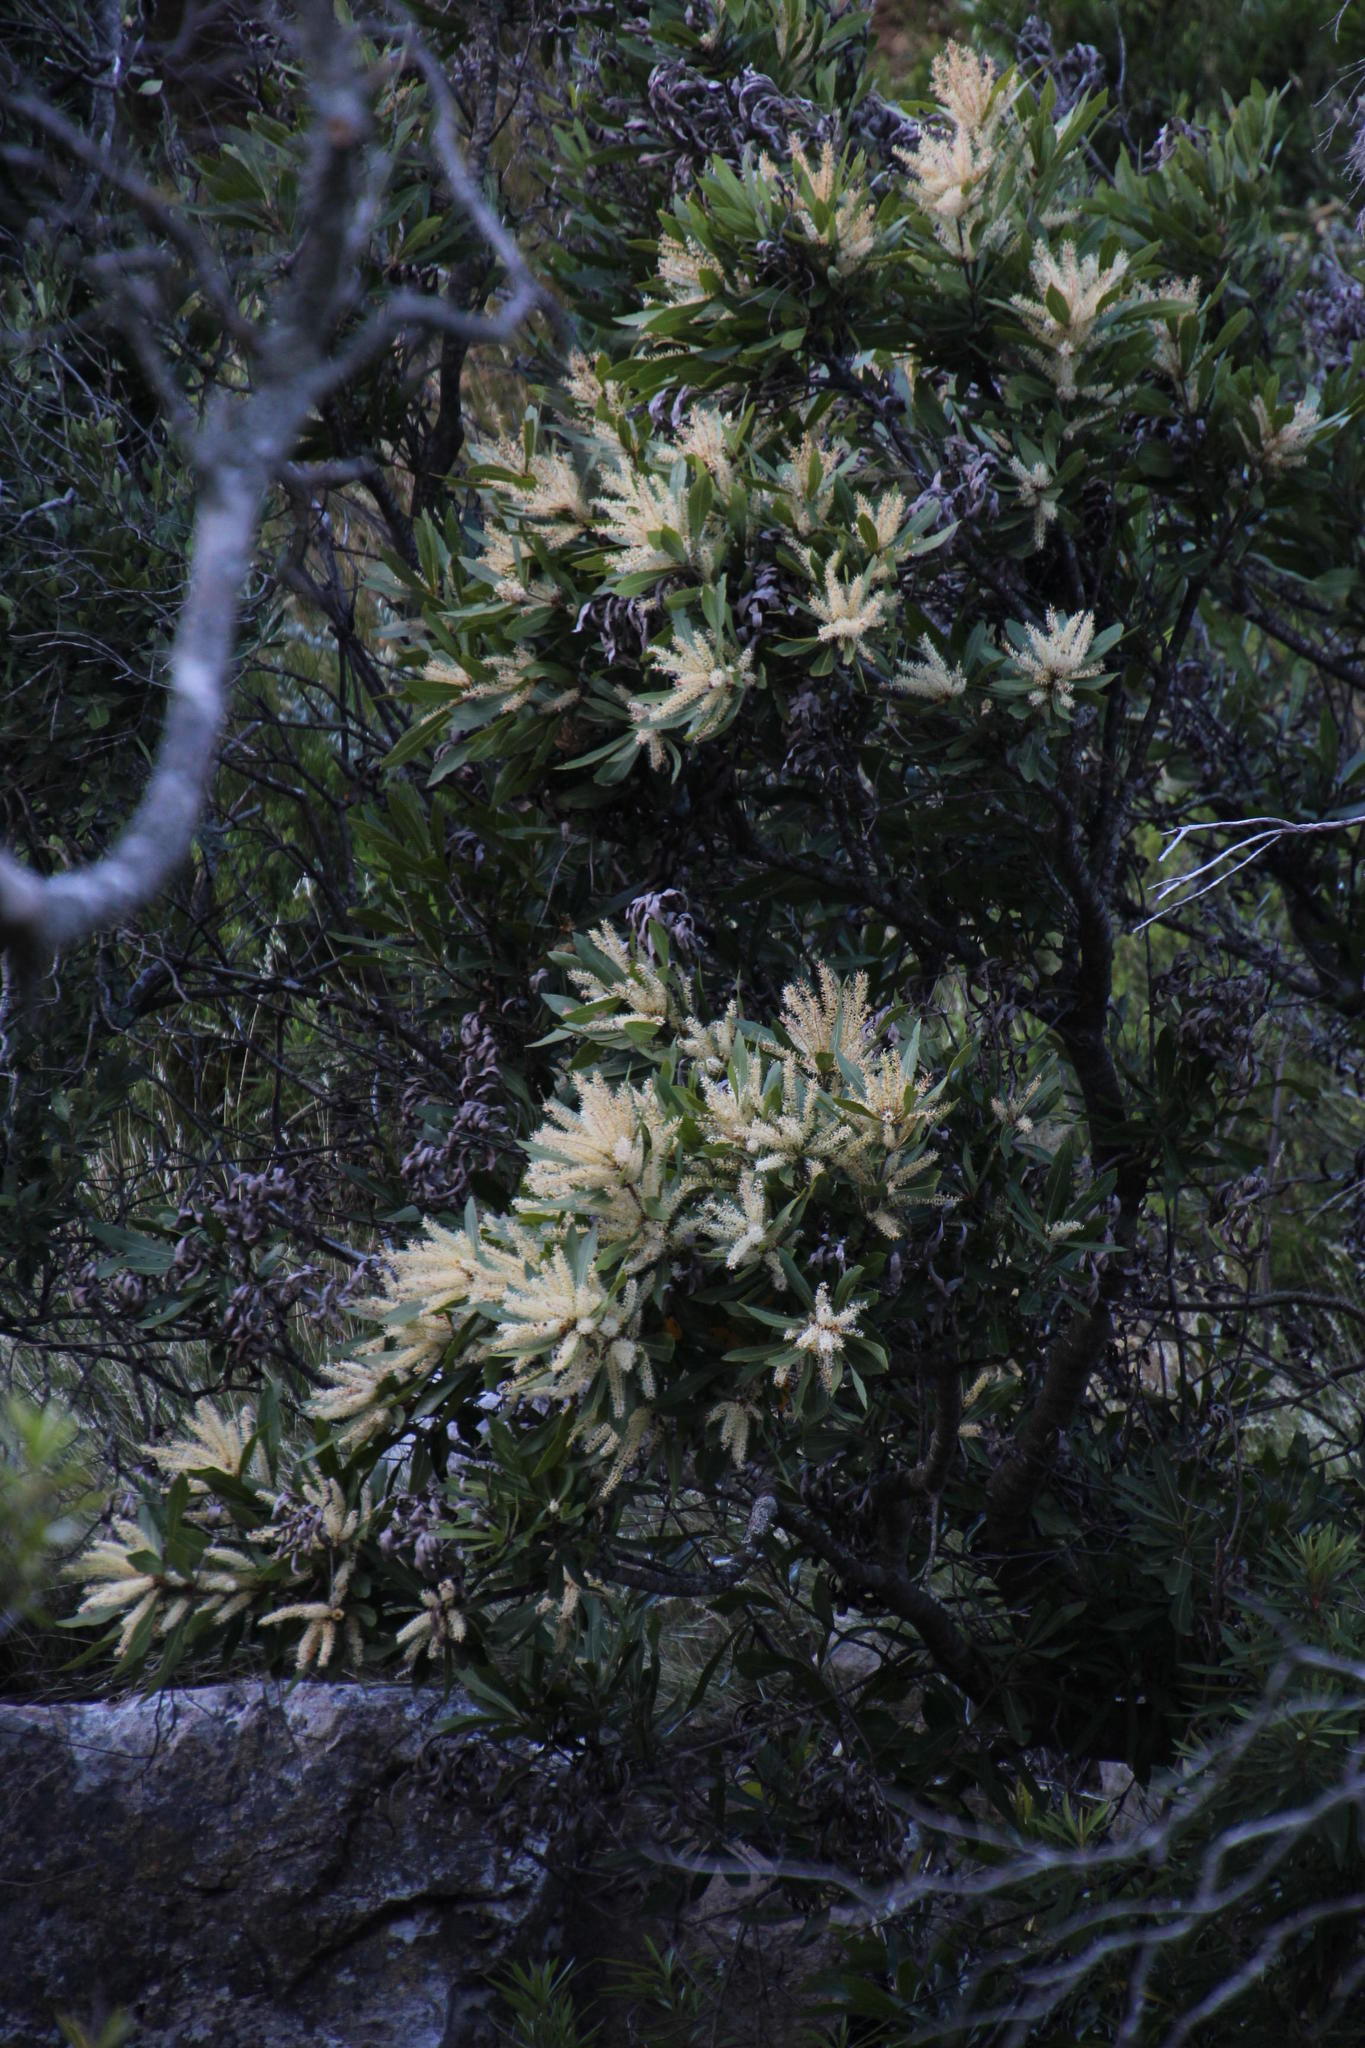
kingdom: Plantae
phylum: Tracheophyta
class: Magnoliopsida
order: Proteales
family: Proteaceae
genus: Brabejum
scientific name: Brabejum stellatifolium
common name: Wild almond
